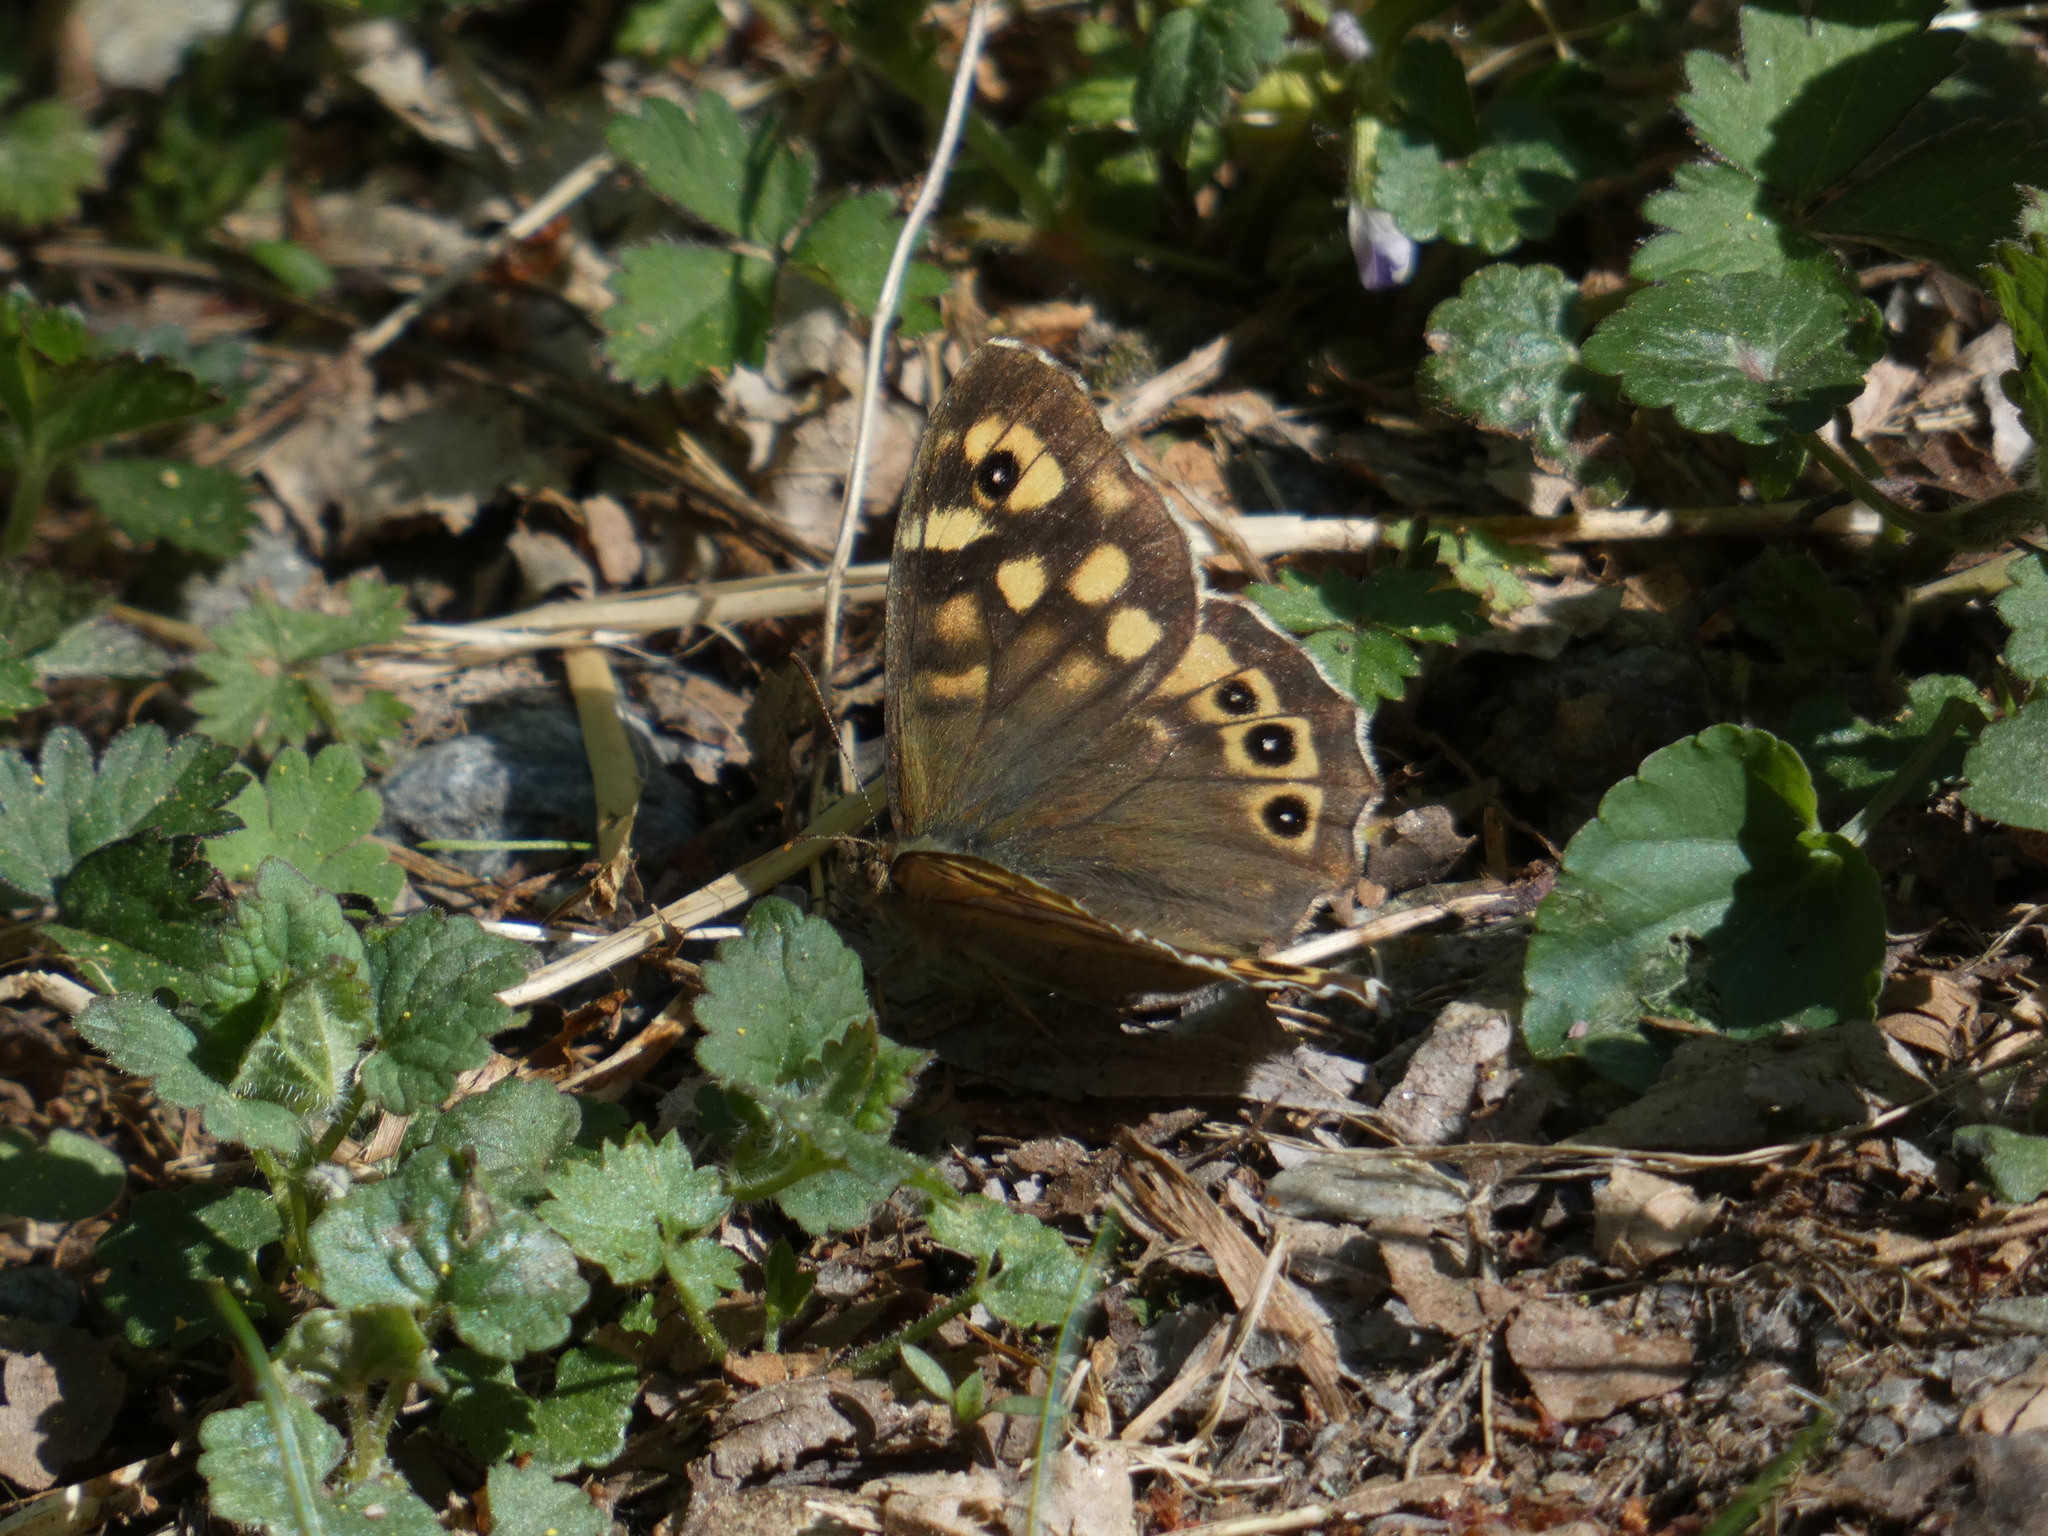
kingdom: Animalia
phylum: Arthropoda
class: Insecta
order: Lepidoptera
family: Nymphalidae
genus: Pararge
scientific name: Pararge aegeria
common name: Speckled wood
